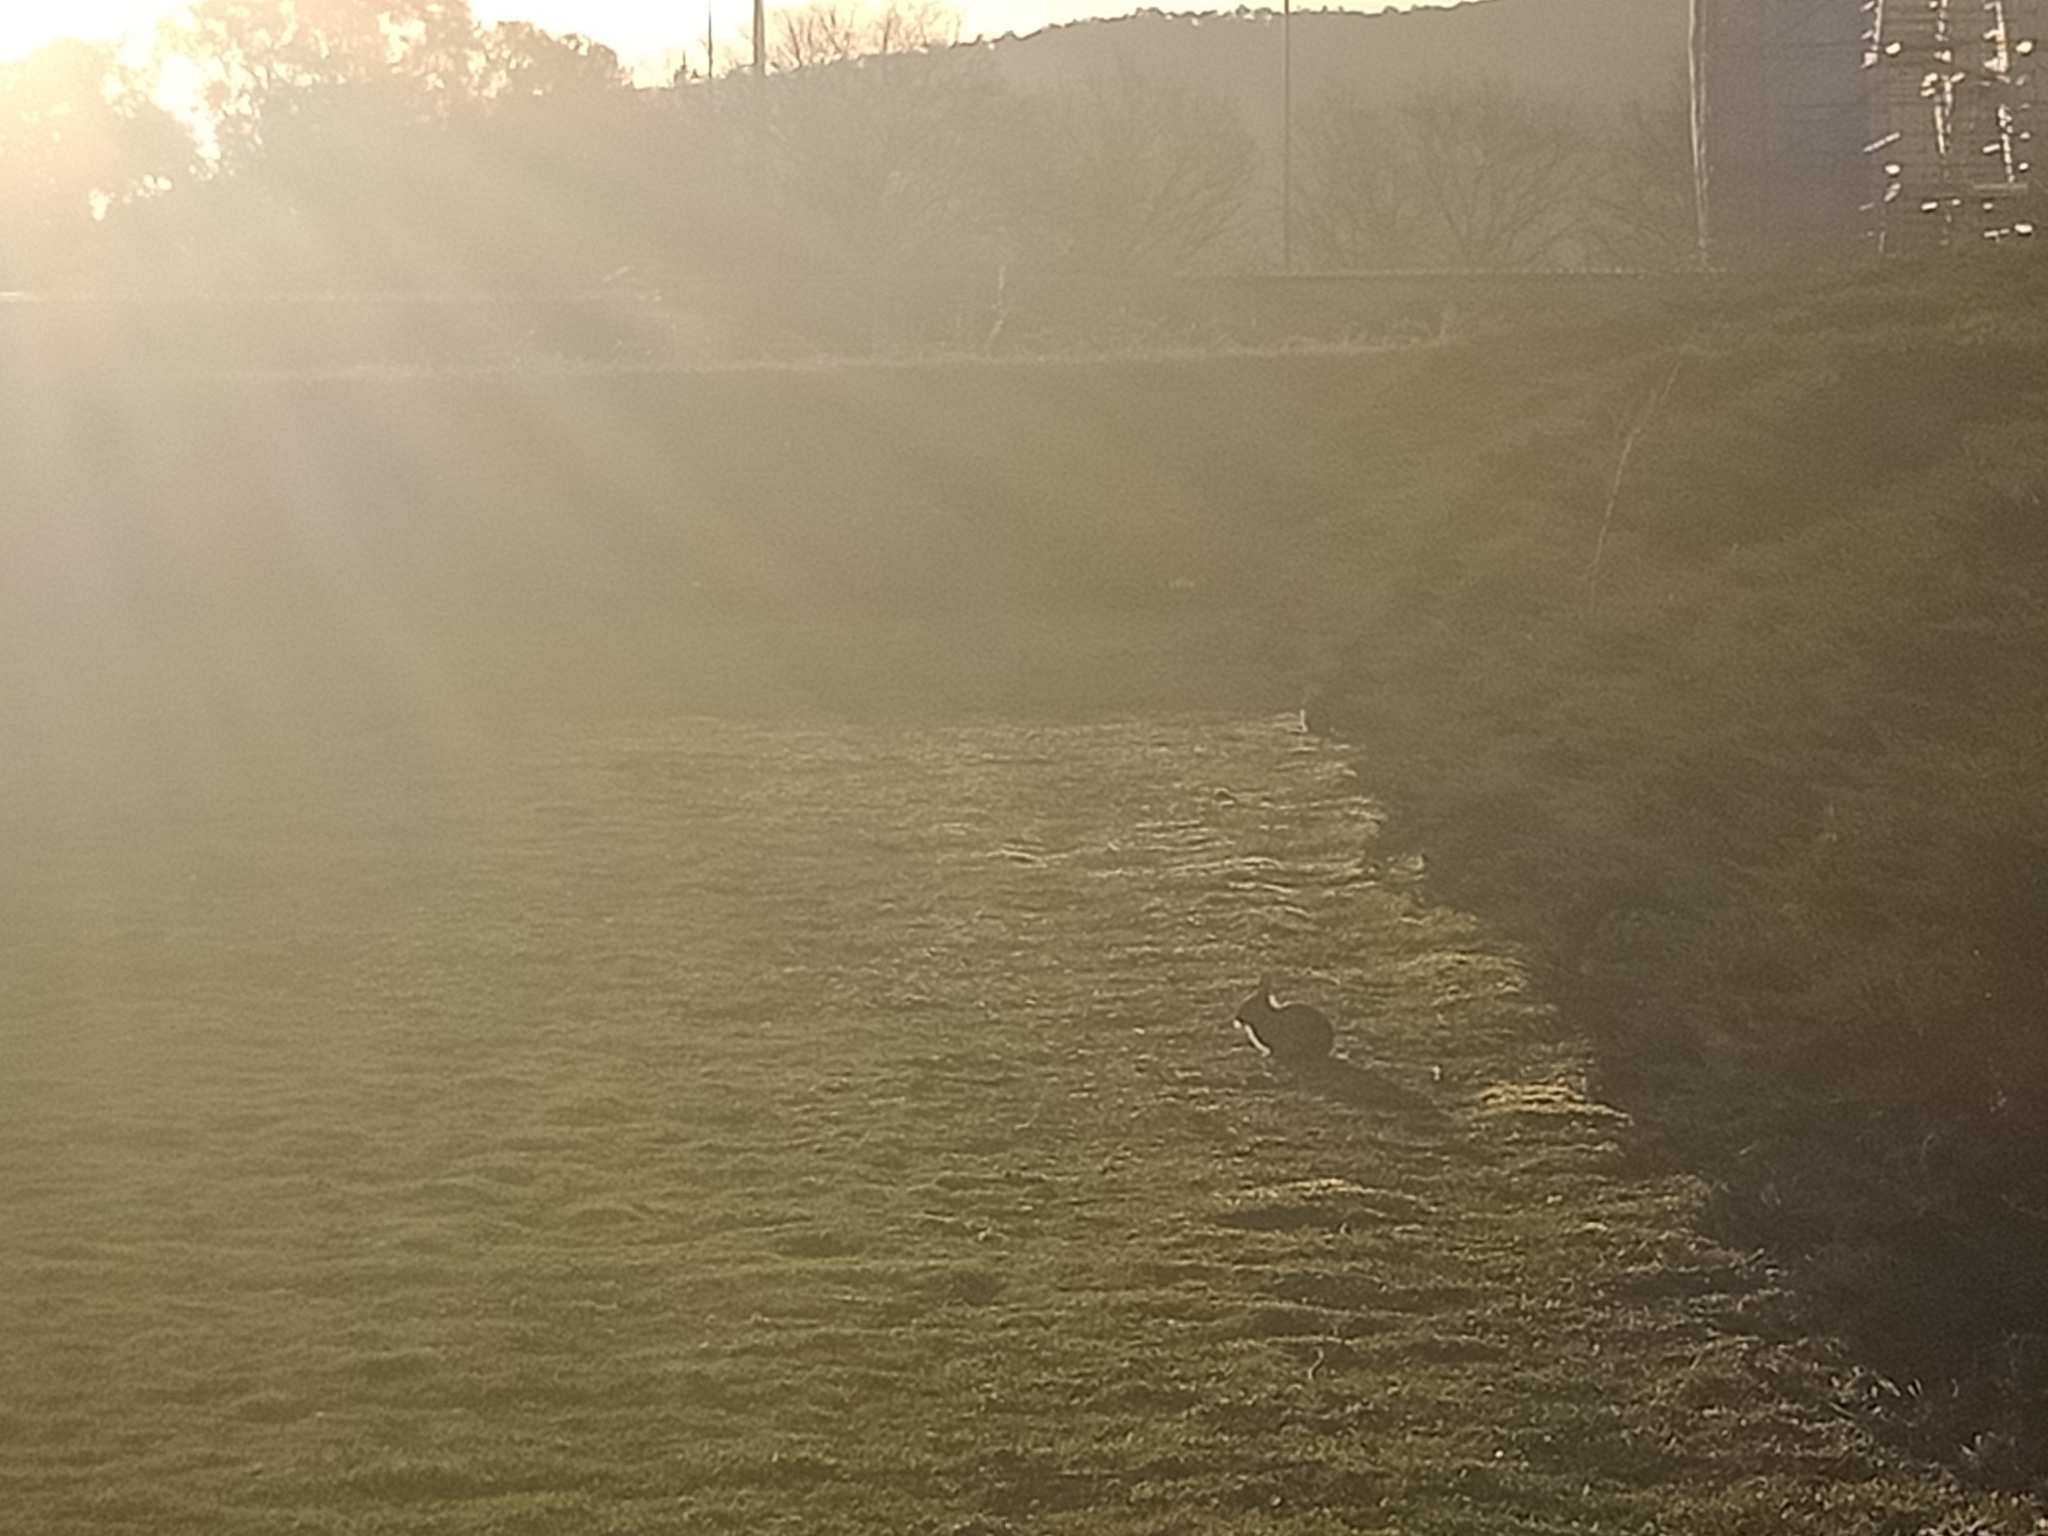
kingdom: Animalia
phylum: Chordata
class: Mammalia
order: Lagomorpha
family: Leporidae
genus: Oryctolagus
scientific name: Oryctolagus cuniculus
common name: European rabbit
